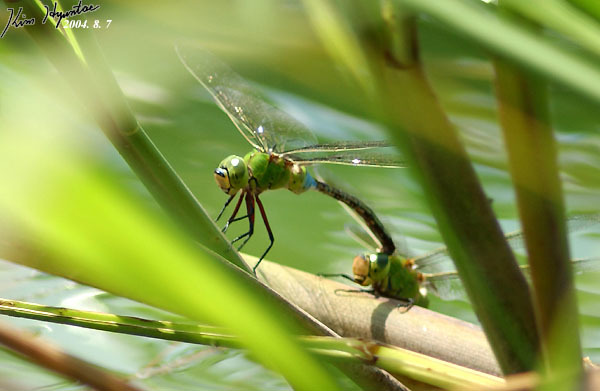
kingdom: Animalia
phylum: Arthropoda
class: Insecta
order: Odonata
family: Aeshnidae
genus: Anax
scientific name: Anax julius
